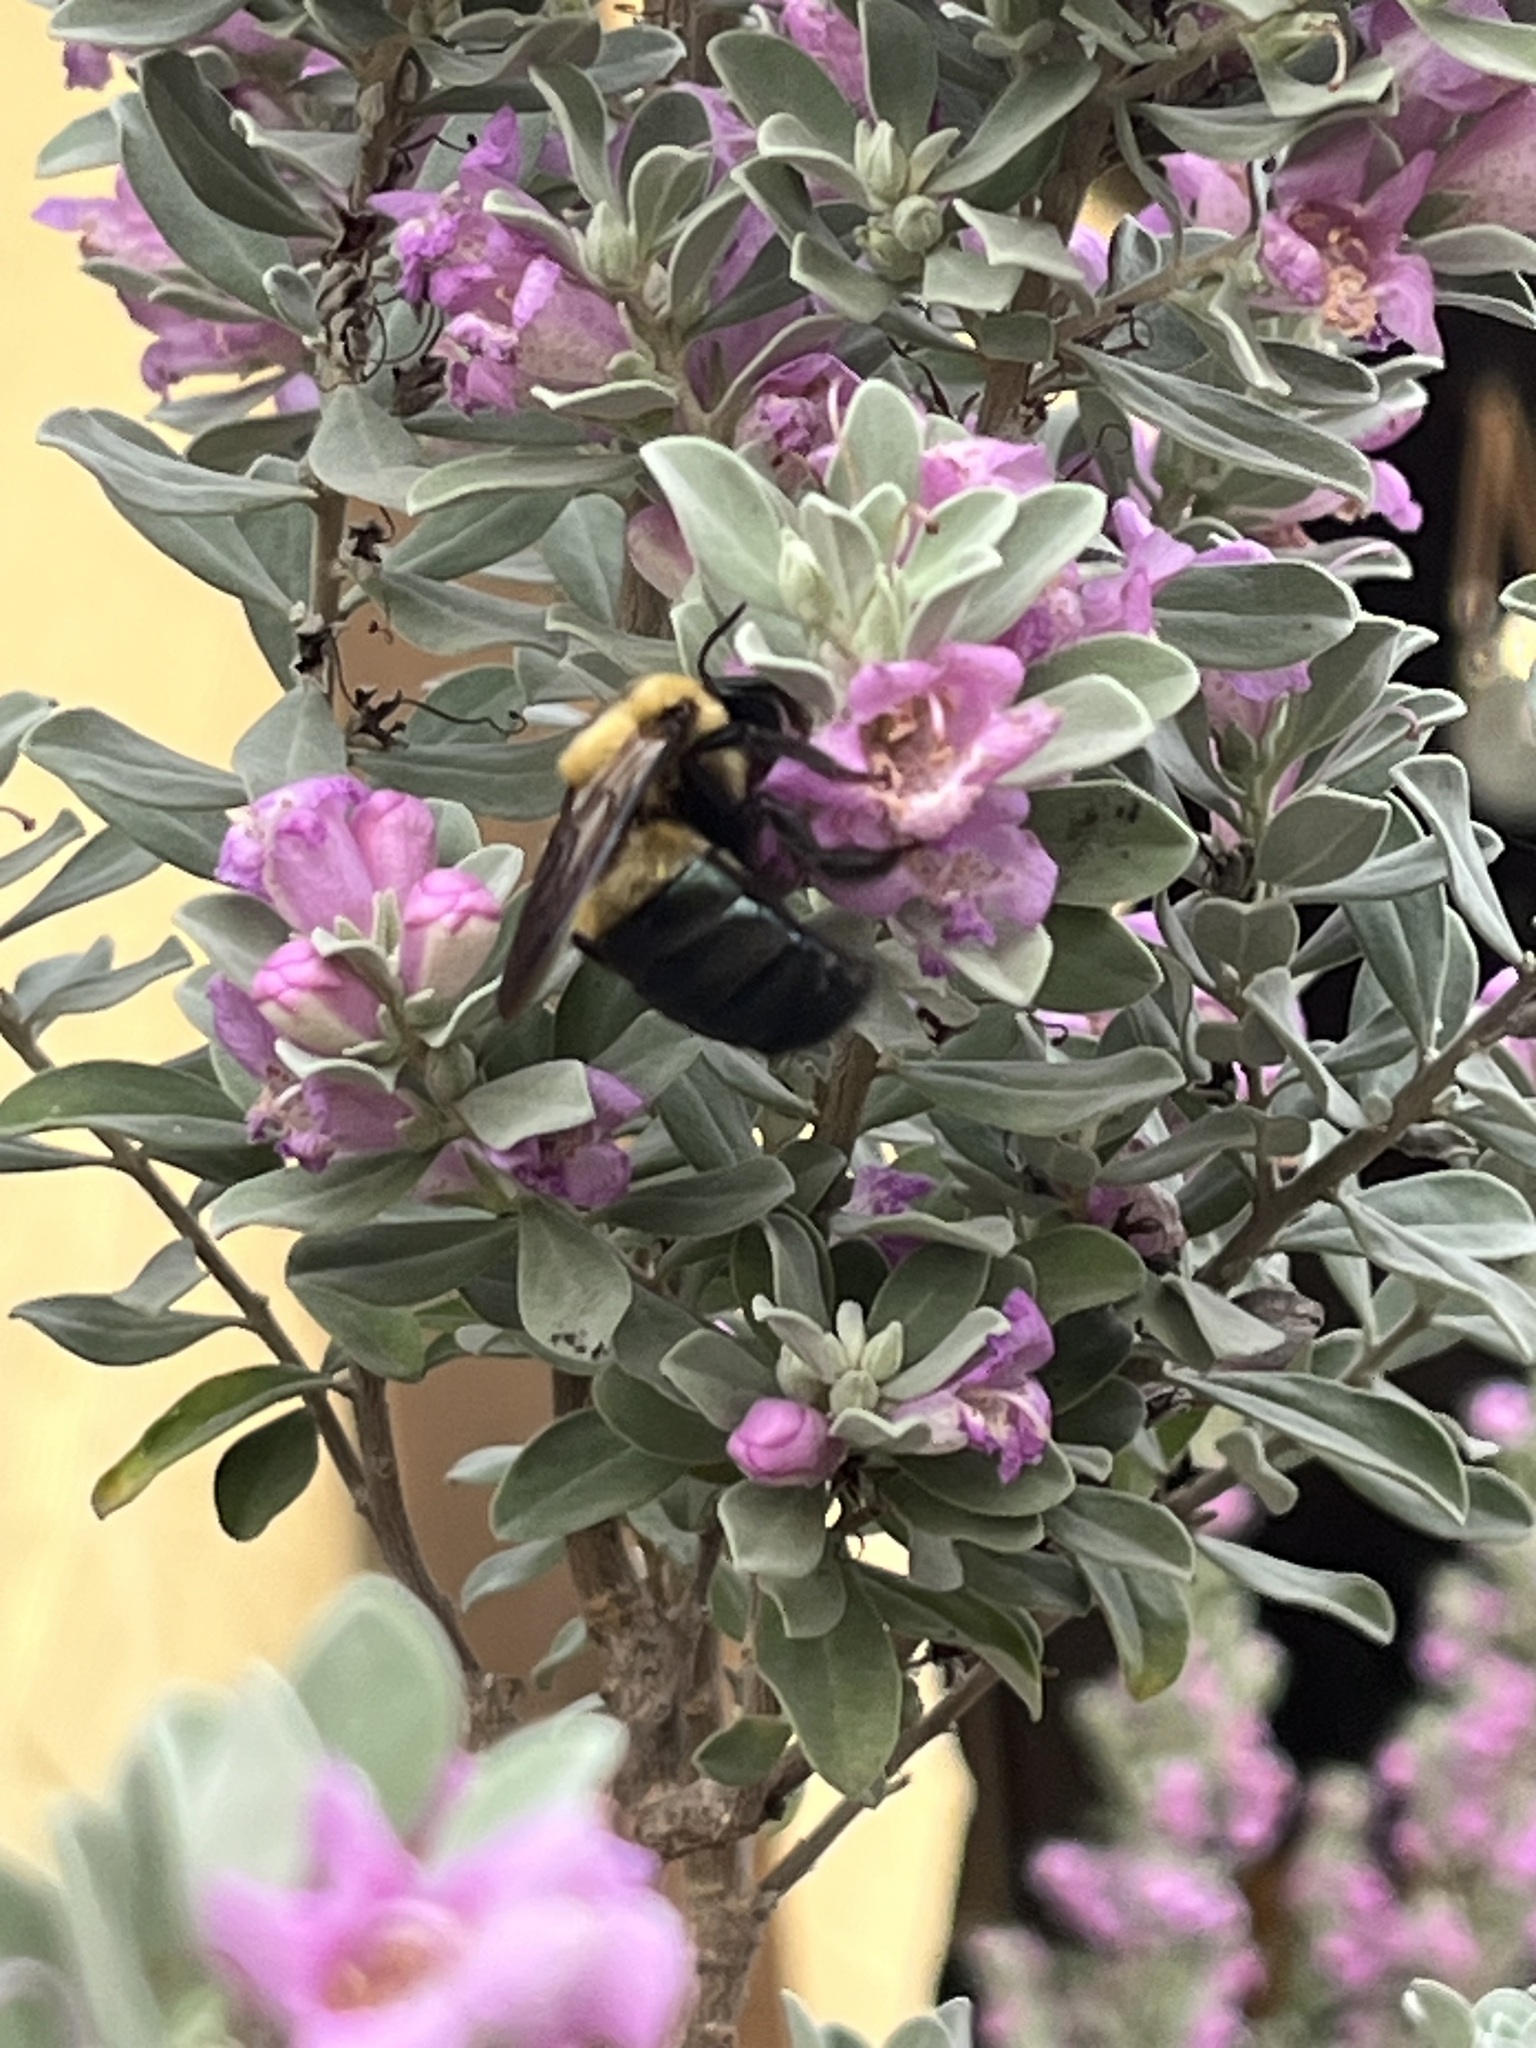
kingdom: Animalia
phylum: Arthropoda
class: Insecta
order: Hymenoptera
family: Apidae
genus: Xylocopa
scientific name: Xylocopa virginica
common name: Carpenter bee
